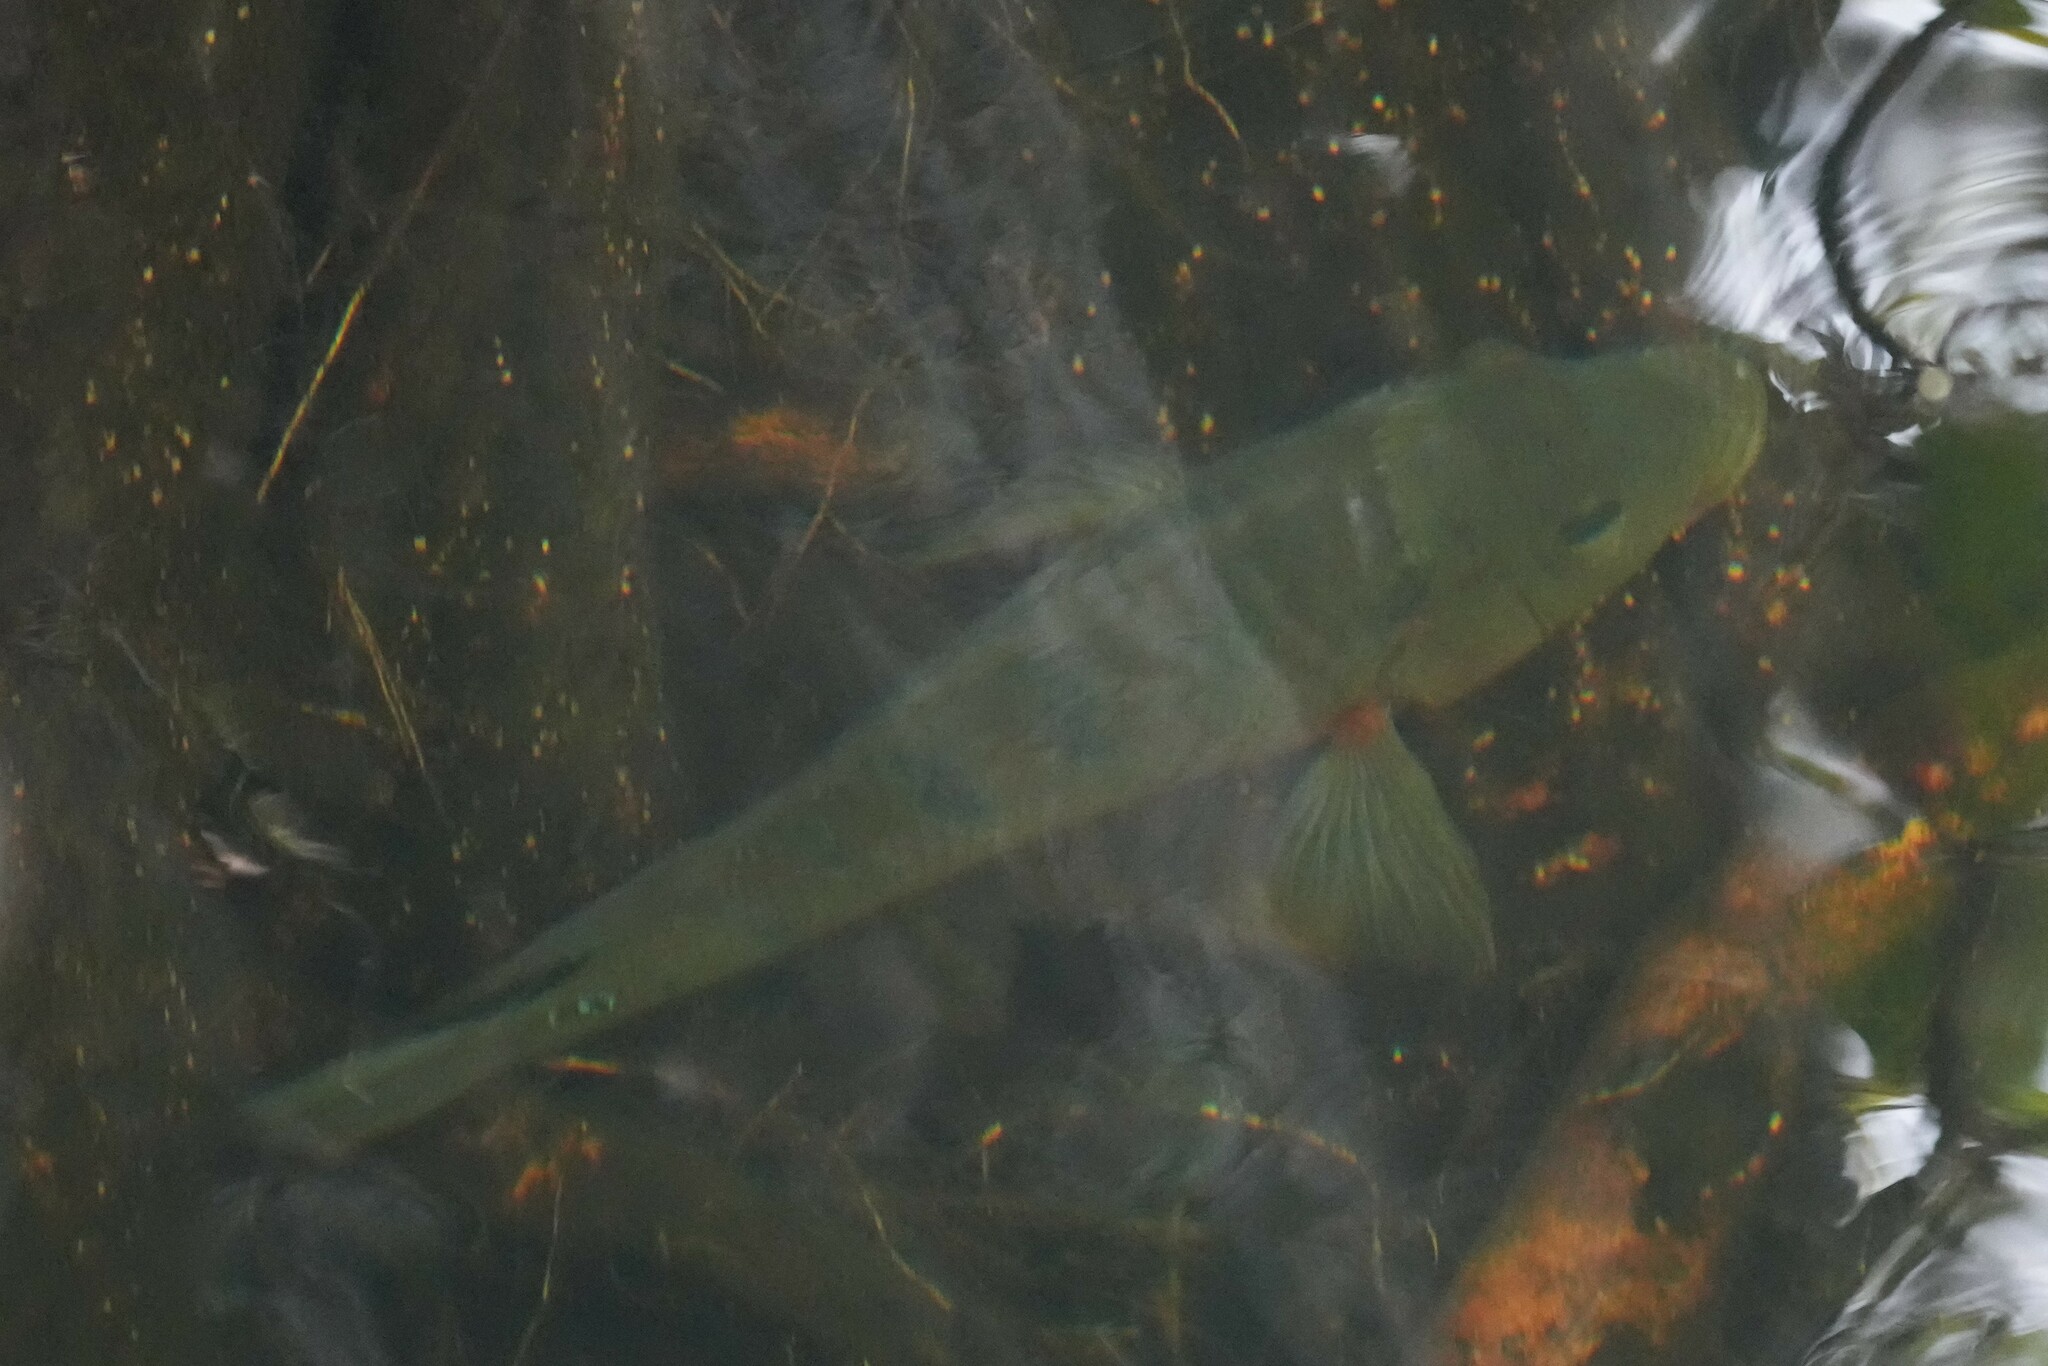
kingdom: Animalia
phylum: Chordata
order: Perciformes
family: Cichlidae
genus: Mayaheros
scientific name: Mayaheros urophthalmus
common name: Mayan cichlid
